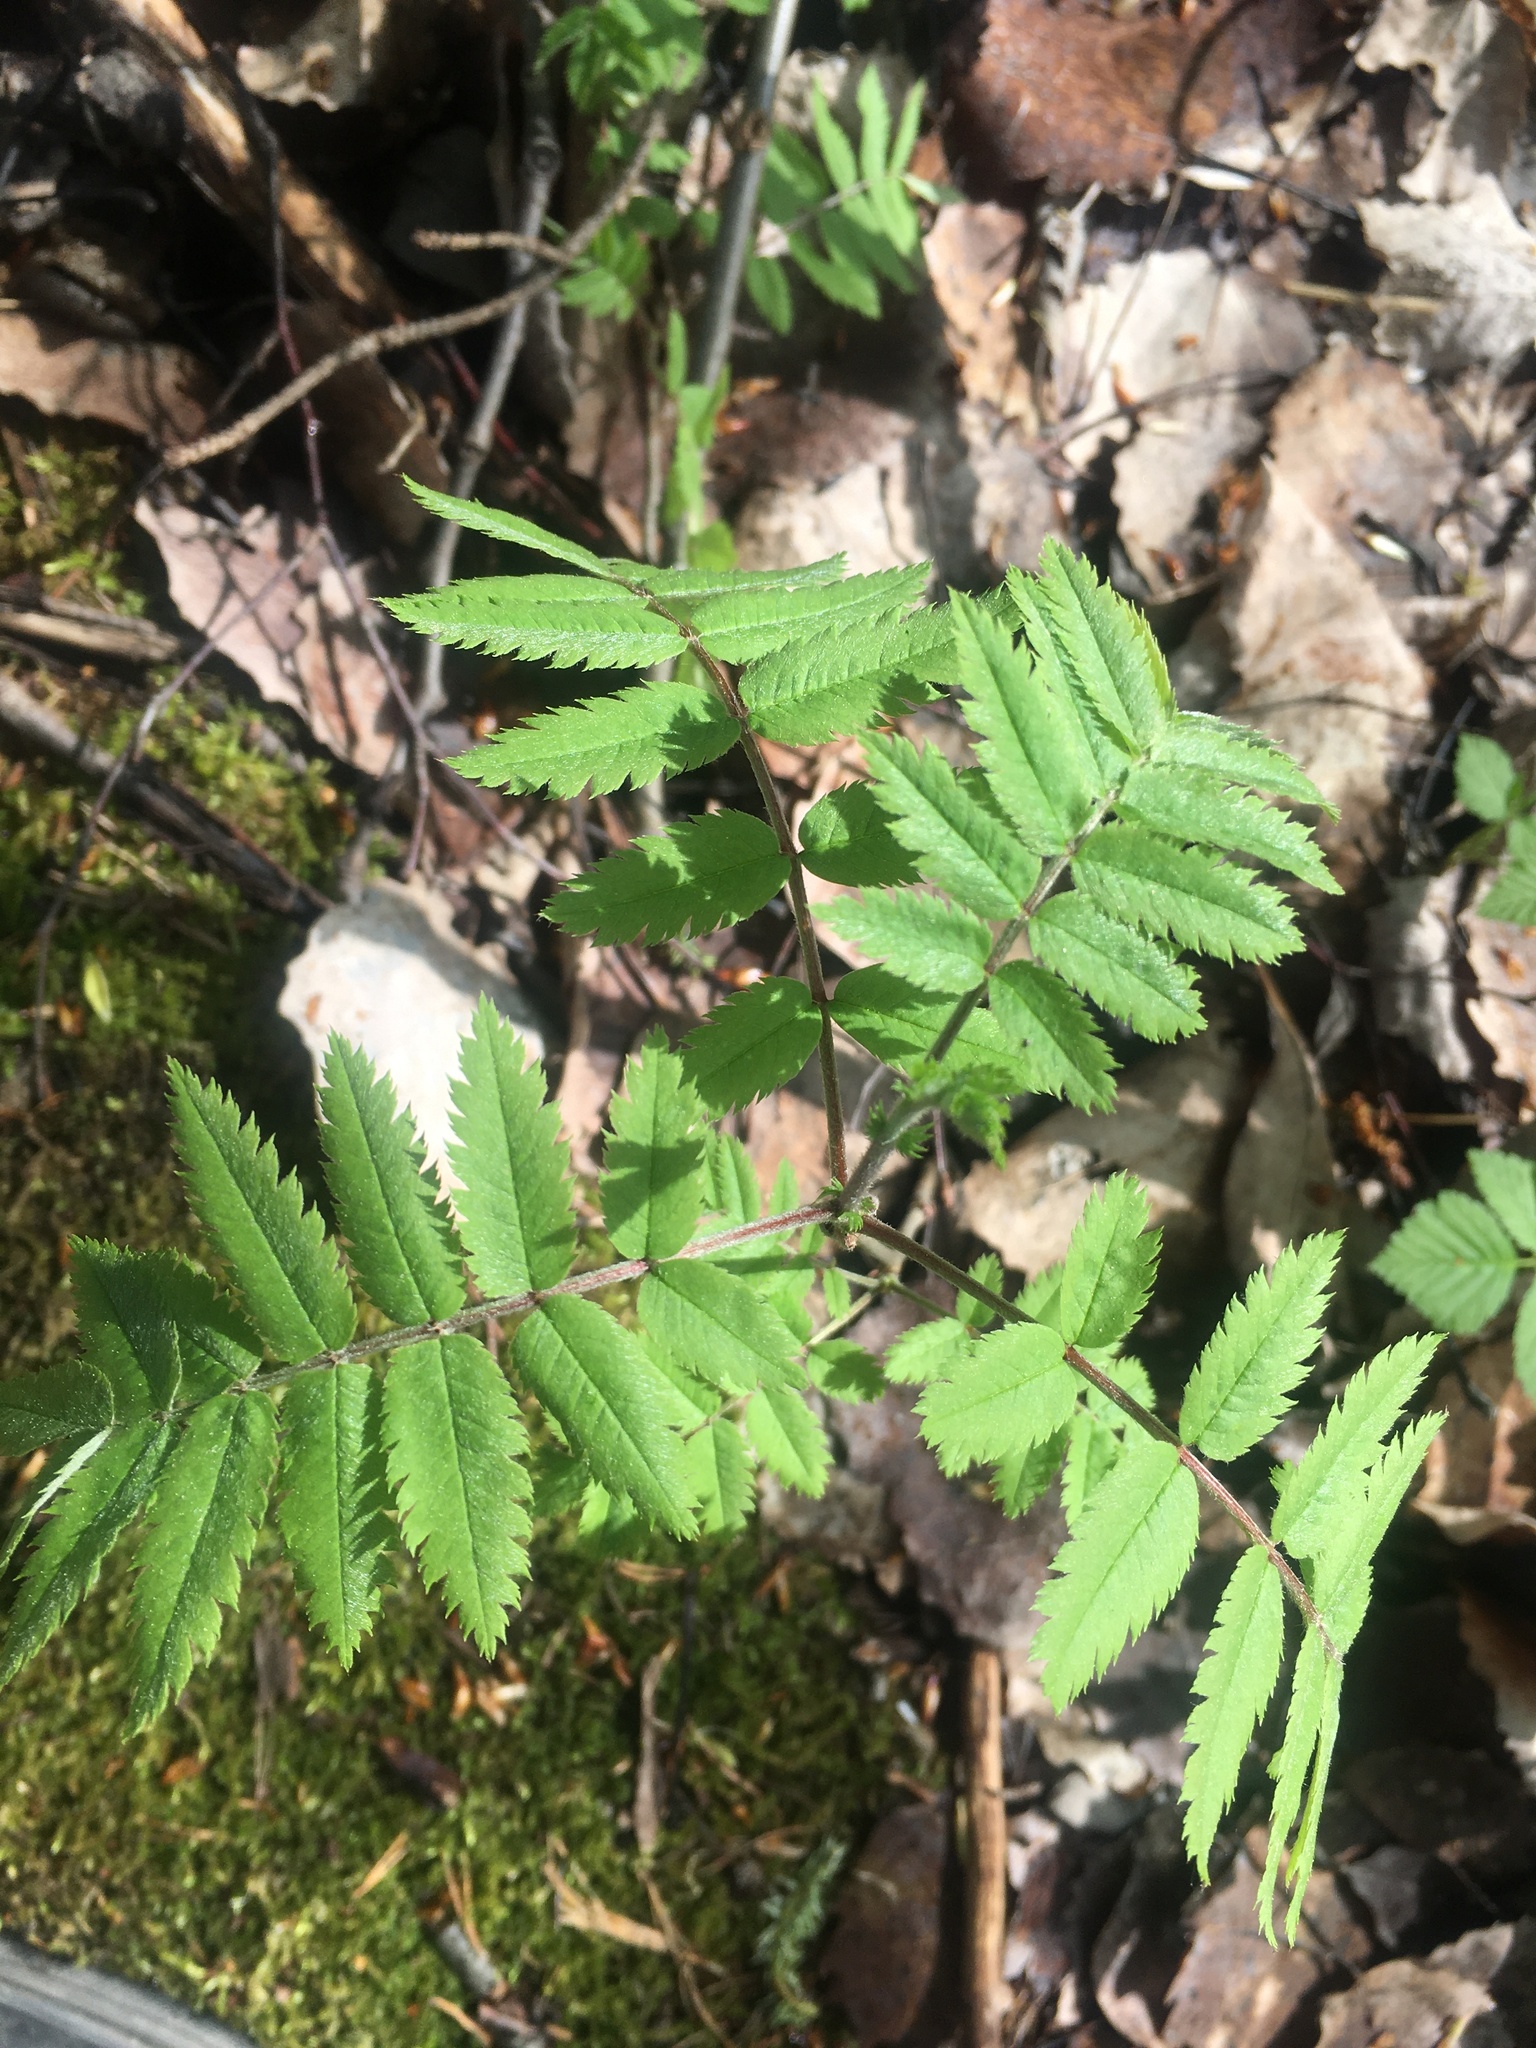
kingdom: Plantae
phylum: Tracheophyta
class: Magnoliopsida
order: Rosales
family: Rosaceae
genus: Sorbus
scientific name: Sorbus aucuparia
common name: Rowan
